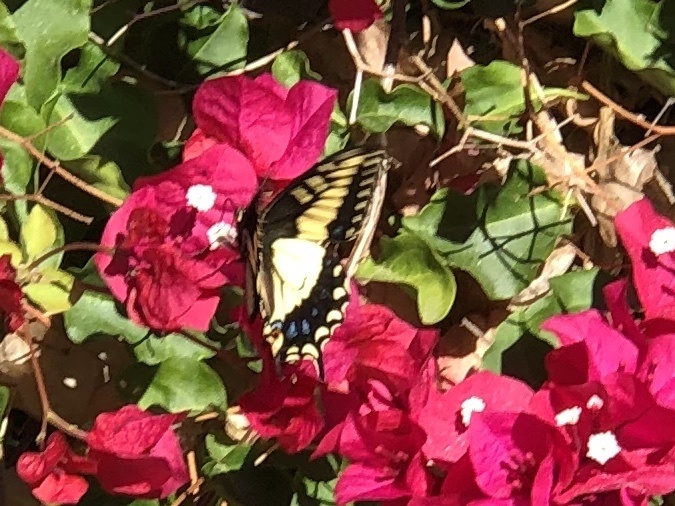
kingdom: Animalia
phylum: Arthropoda
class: Insecta
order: Lepidoptera
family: Papilionidae
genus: Papilio
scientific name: Papilio zelicaon
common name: Anise swallowtail
